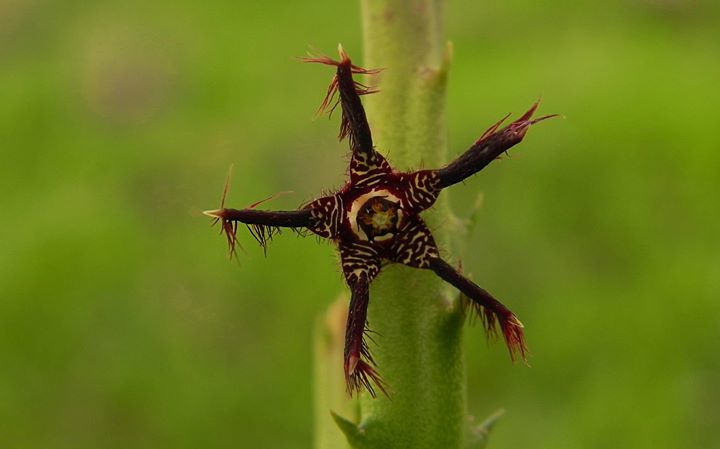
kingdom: Plantae
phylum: Tracheophyta
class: Magnoliopsida
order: Gentianales
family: Apocynaceae
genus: Ceropegia
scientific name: Ceropegia adscendens
